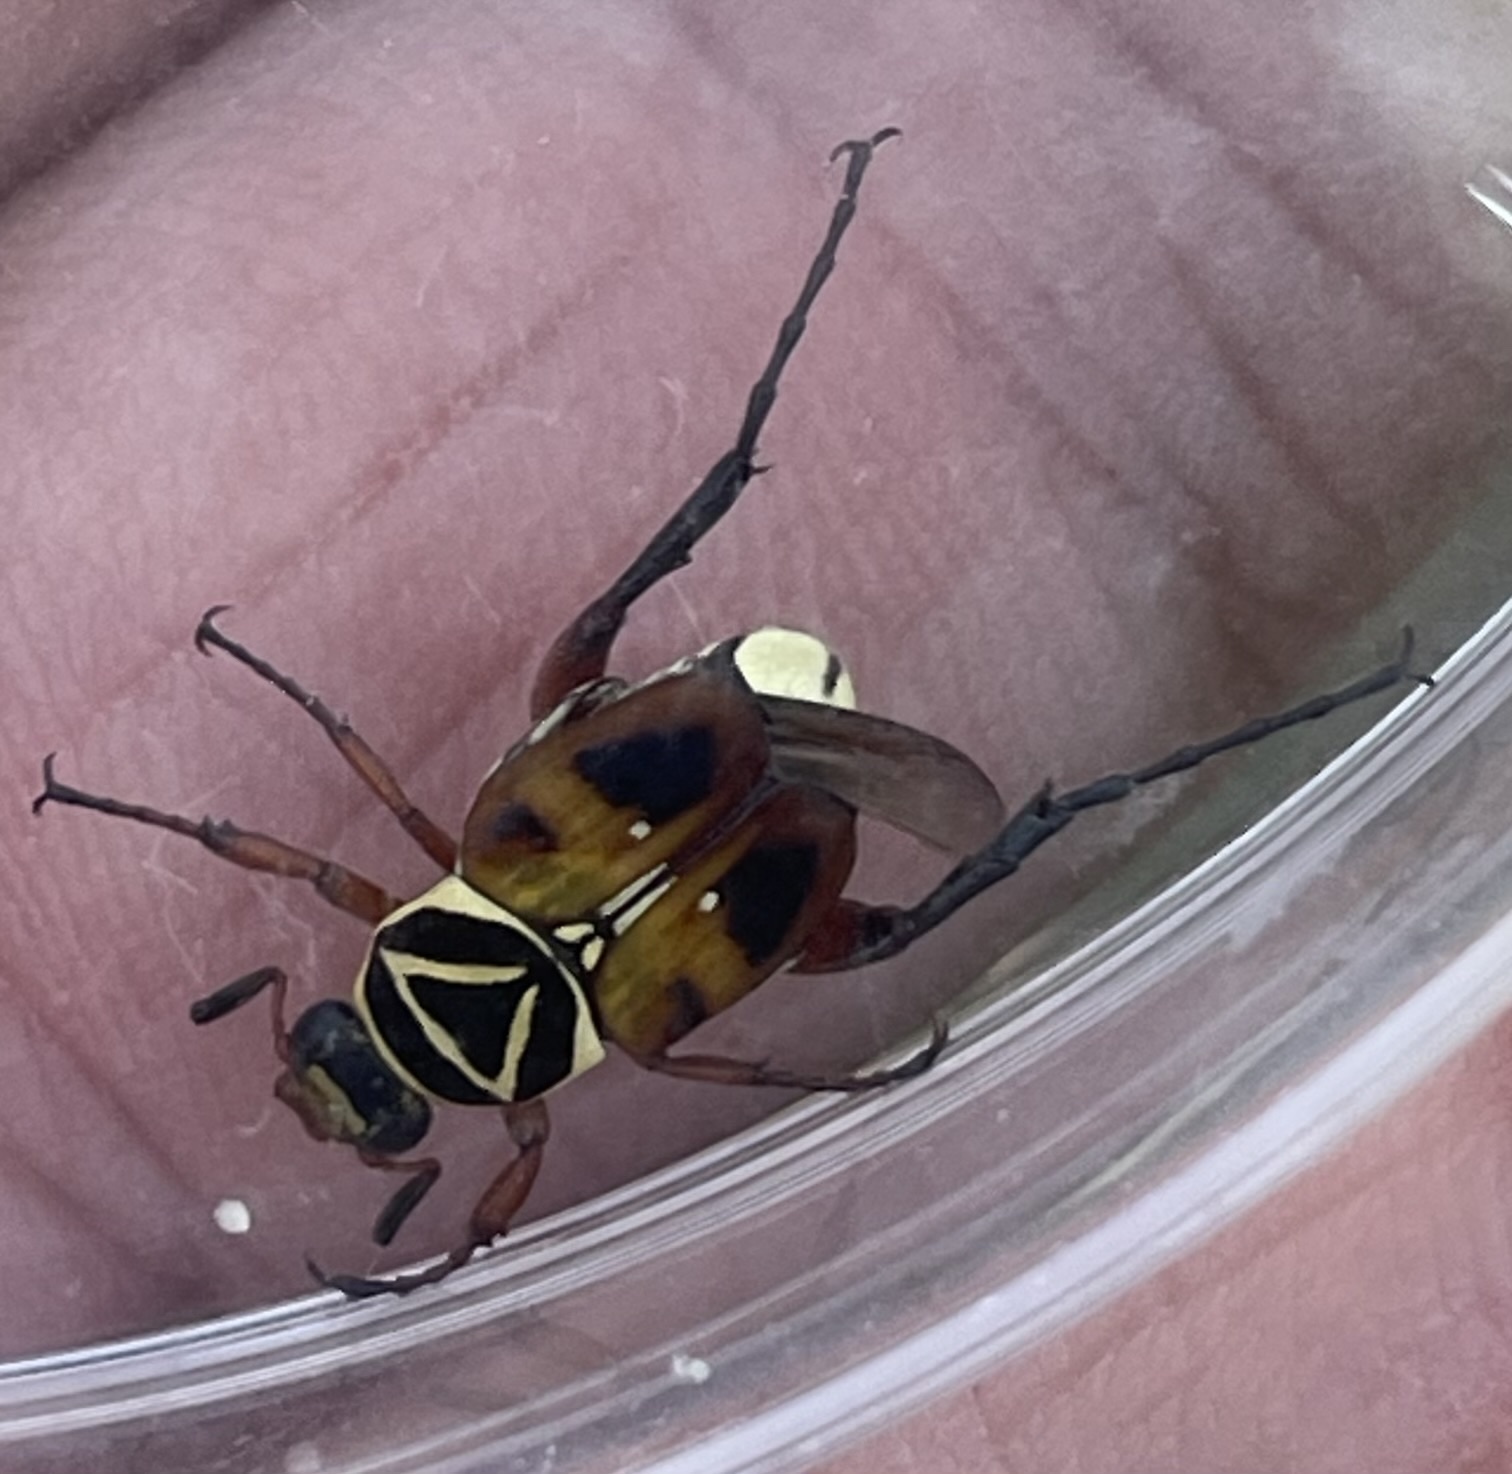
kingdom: Animalia
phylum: Arthropoda
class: Insecta
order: Coleoptera
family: Scarabaeidae
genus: Trigonopeltastes
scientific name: Trigonopeltastes delta
